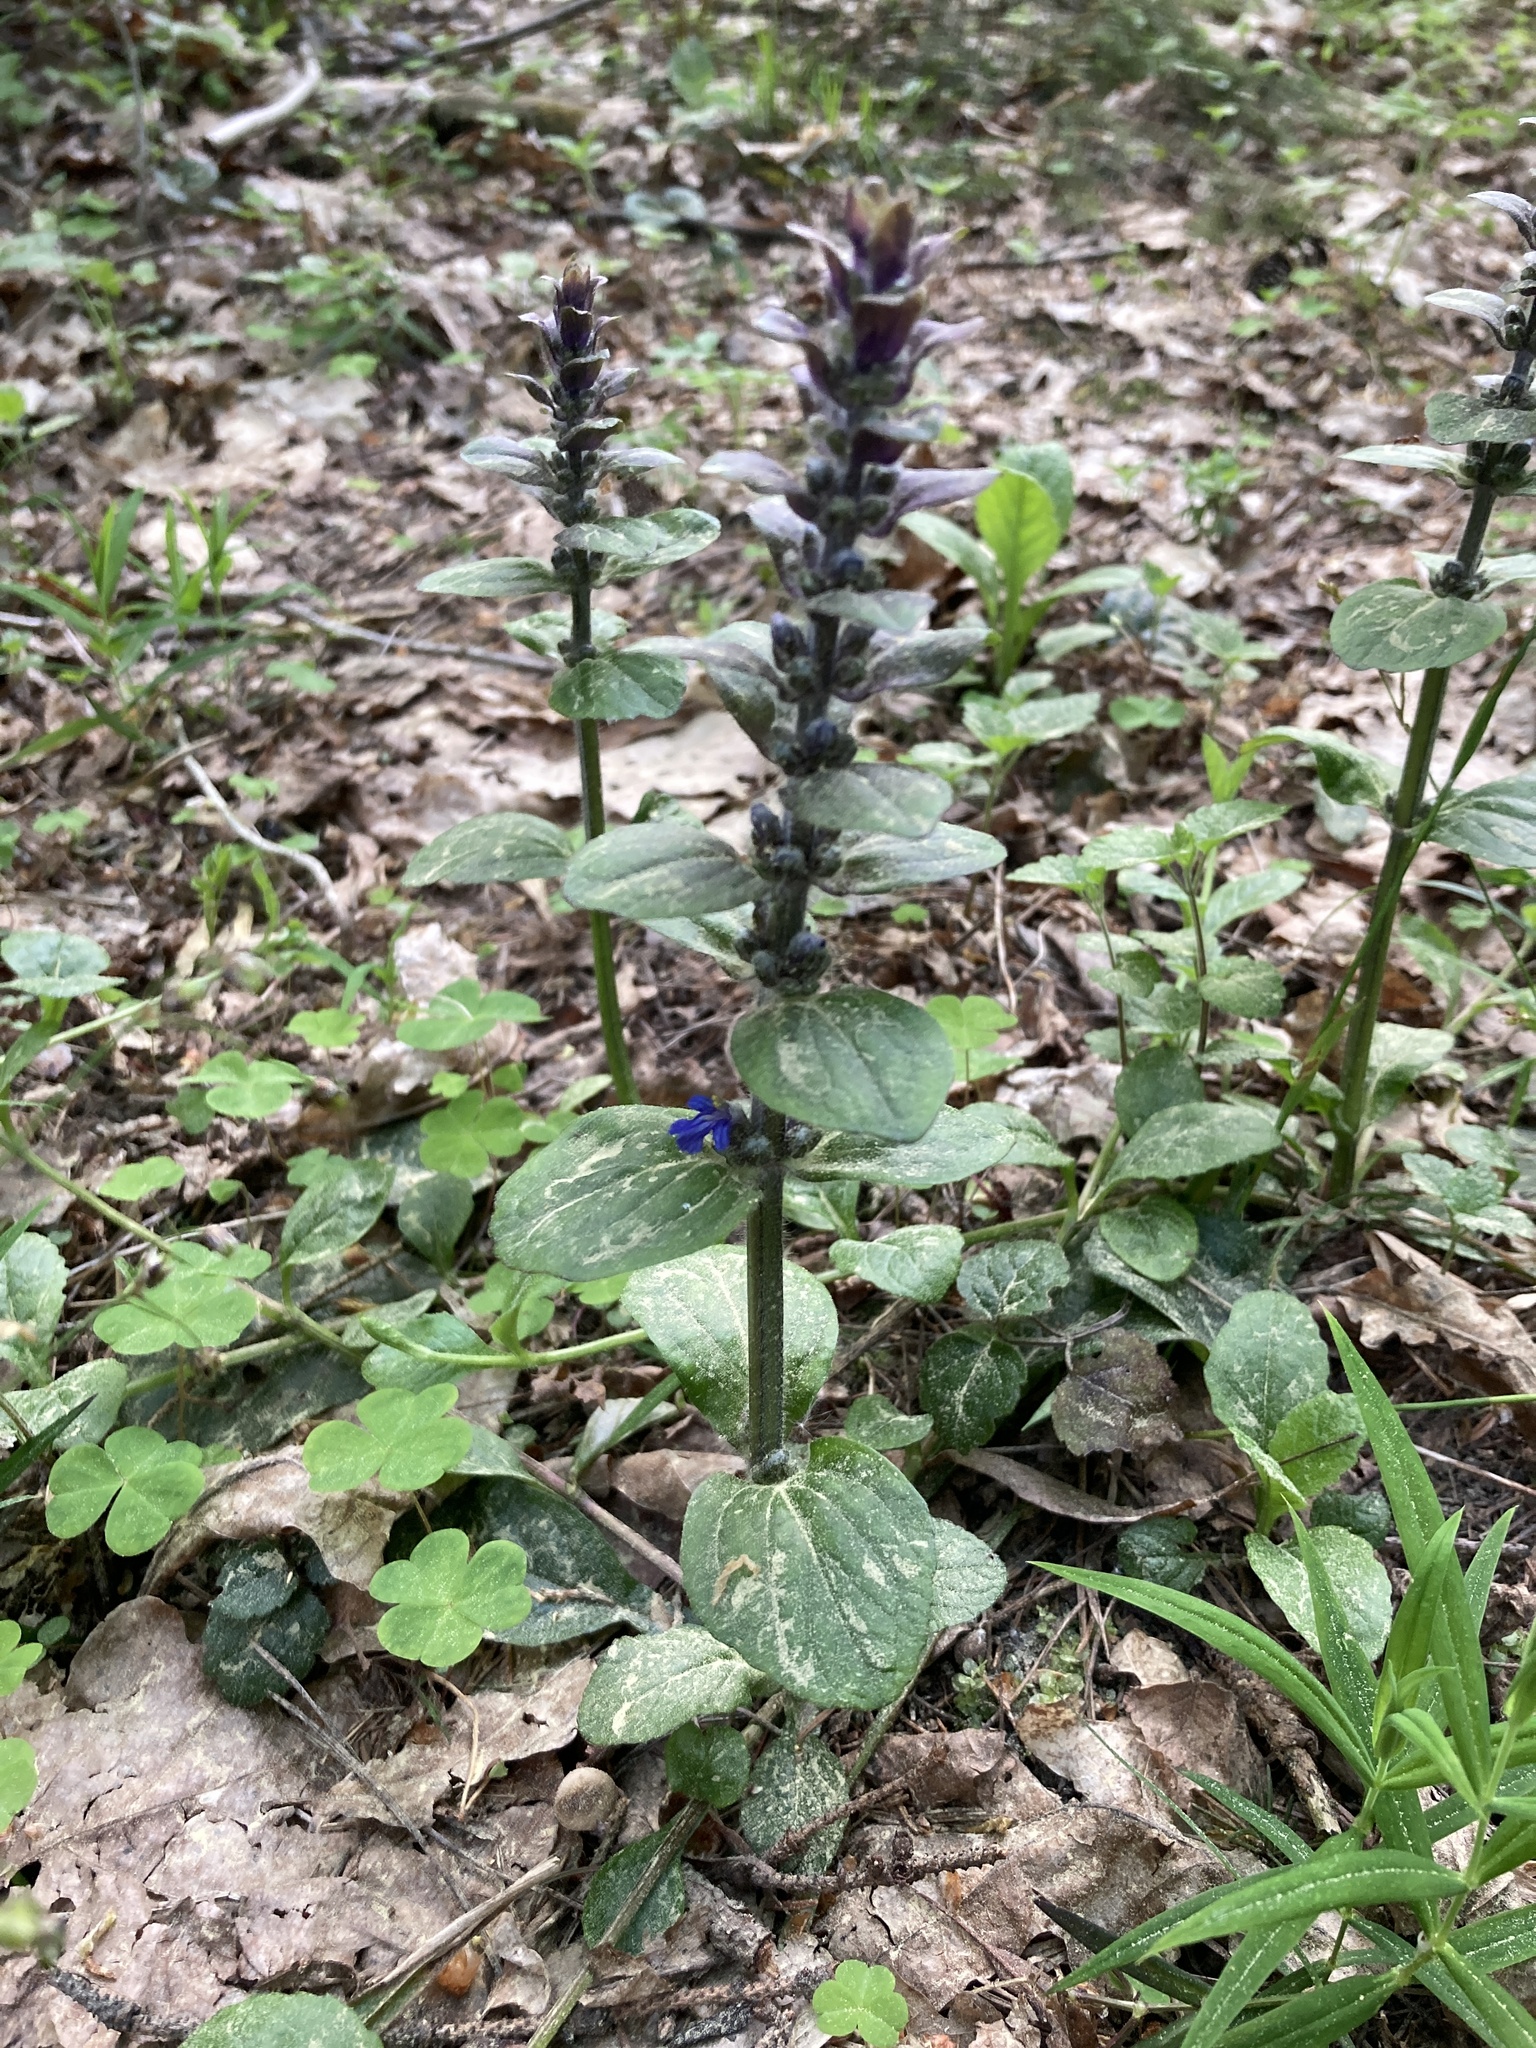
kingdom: Plantae
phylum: Tracheophyta
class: Magnoliopsida
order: Lamiales
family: Lamiaceae
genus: Ajuga
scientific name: Ajuga reptans
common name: Bugle
